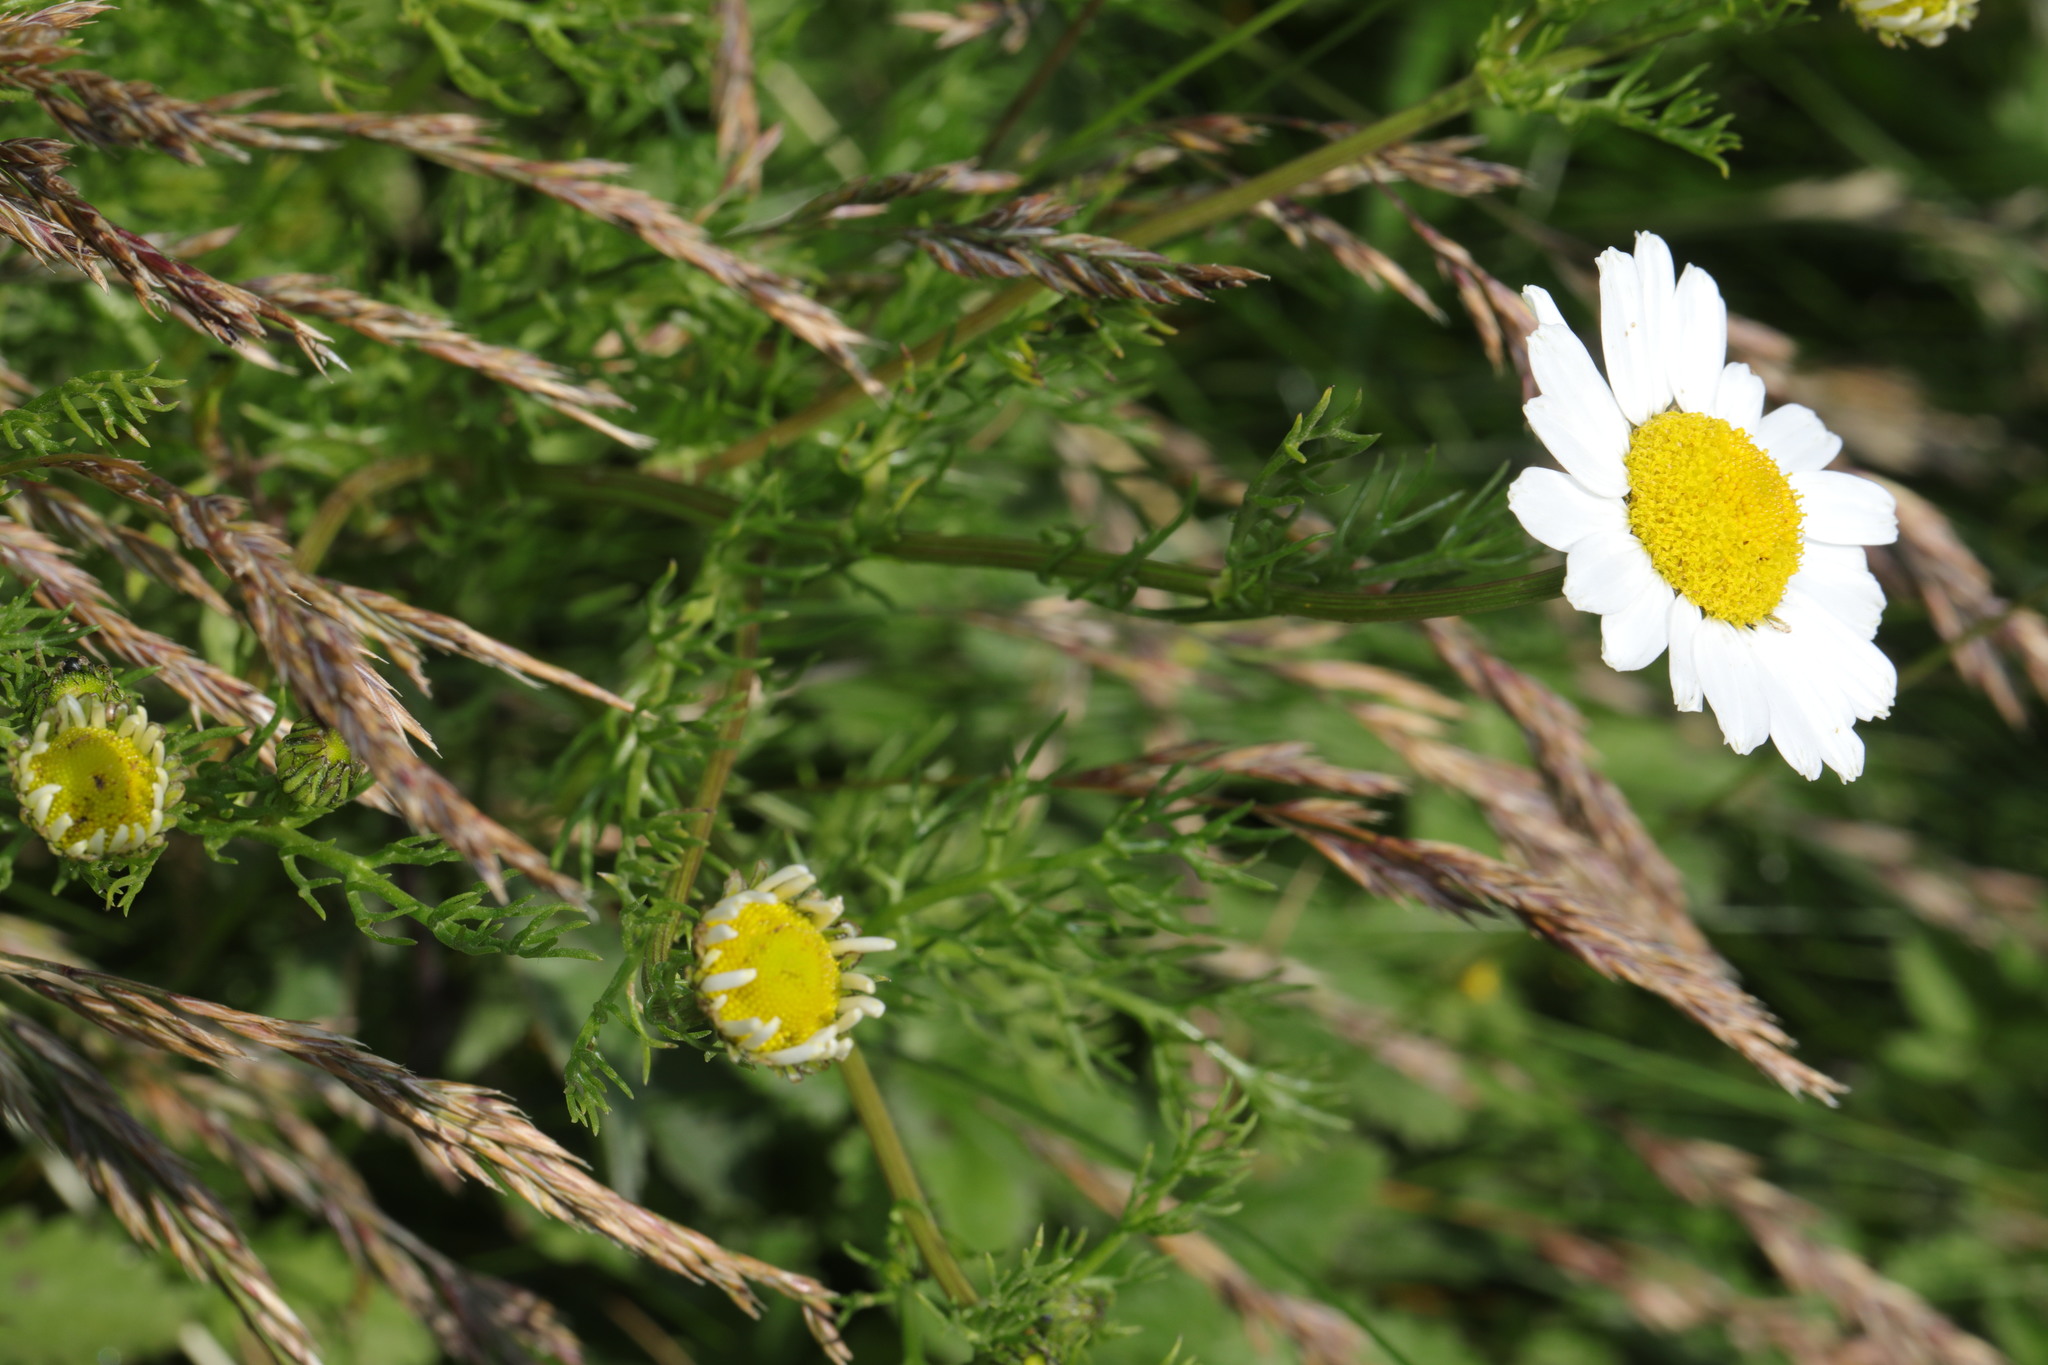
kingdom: Plantae
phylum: Tracheophyta
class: Magnoliopsida
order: Asterales
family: Asteraceae
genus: Tripleurospermum
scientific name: Tripleurospermum maritimum
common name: Sea mayweed
